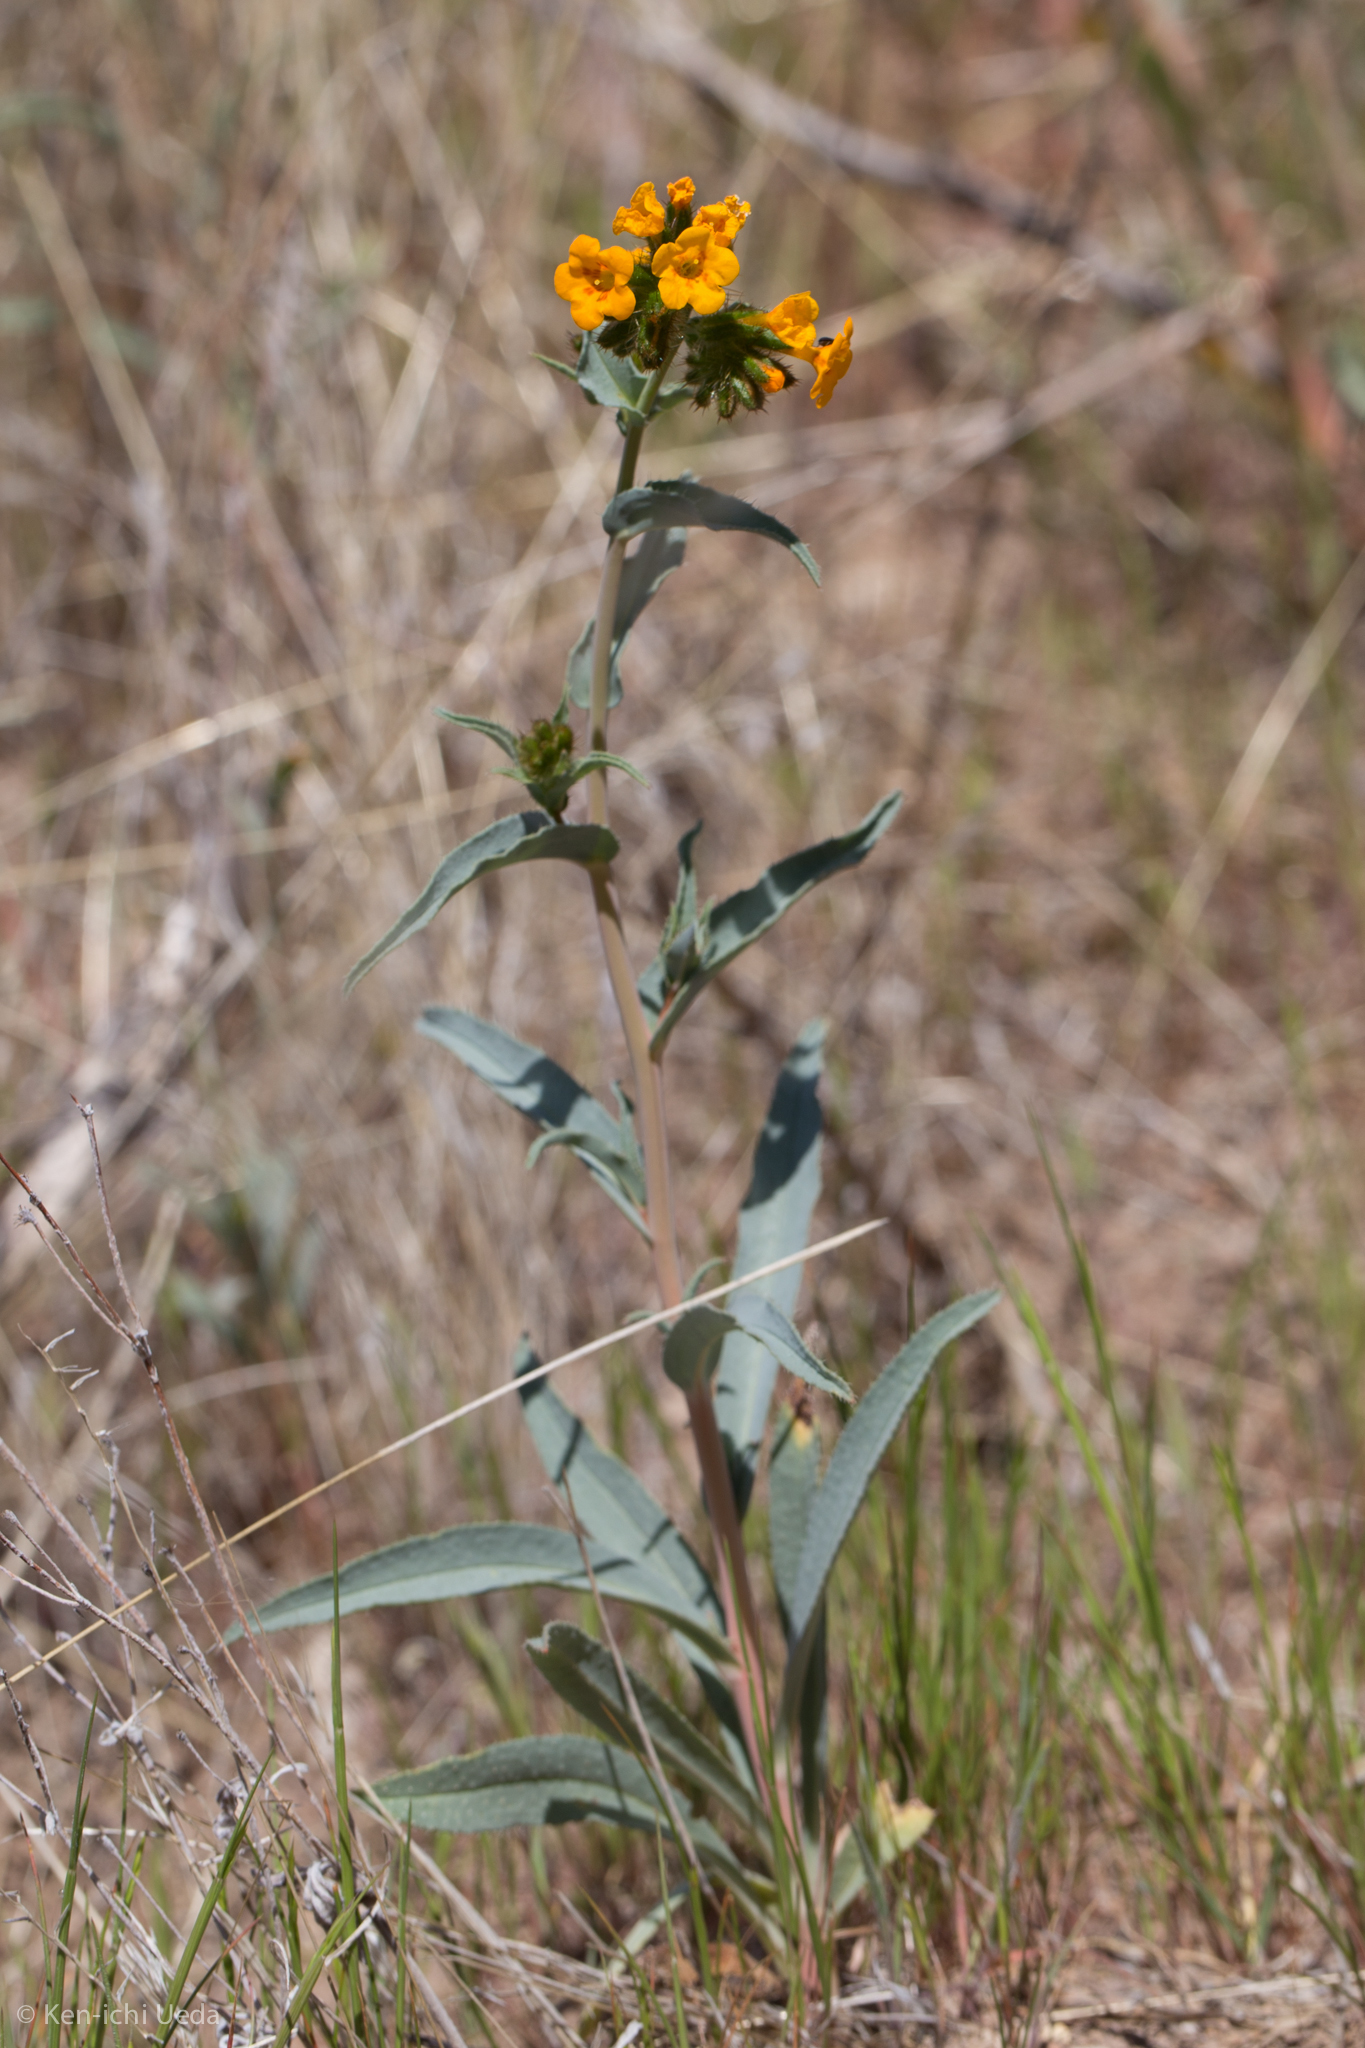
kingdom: Plantae
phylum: Tracheophyta
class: Magnoliopsida
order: Boraginales
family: Boraginaceae
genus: Amsinckia
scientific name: Amsinckia vernicosa
